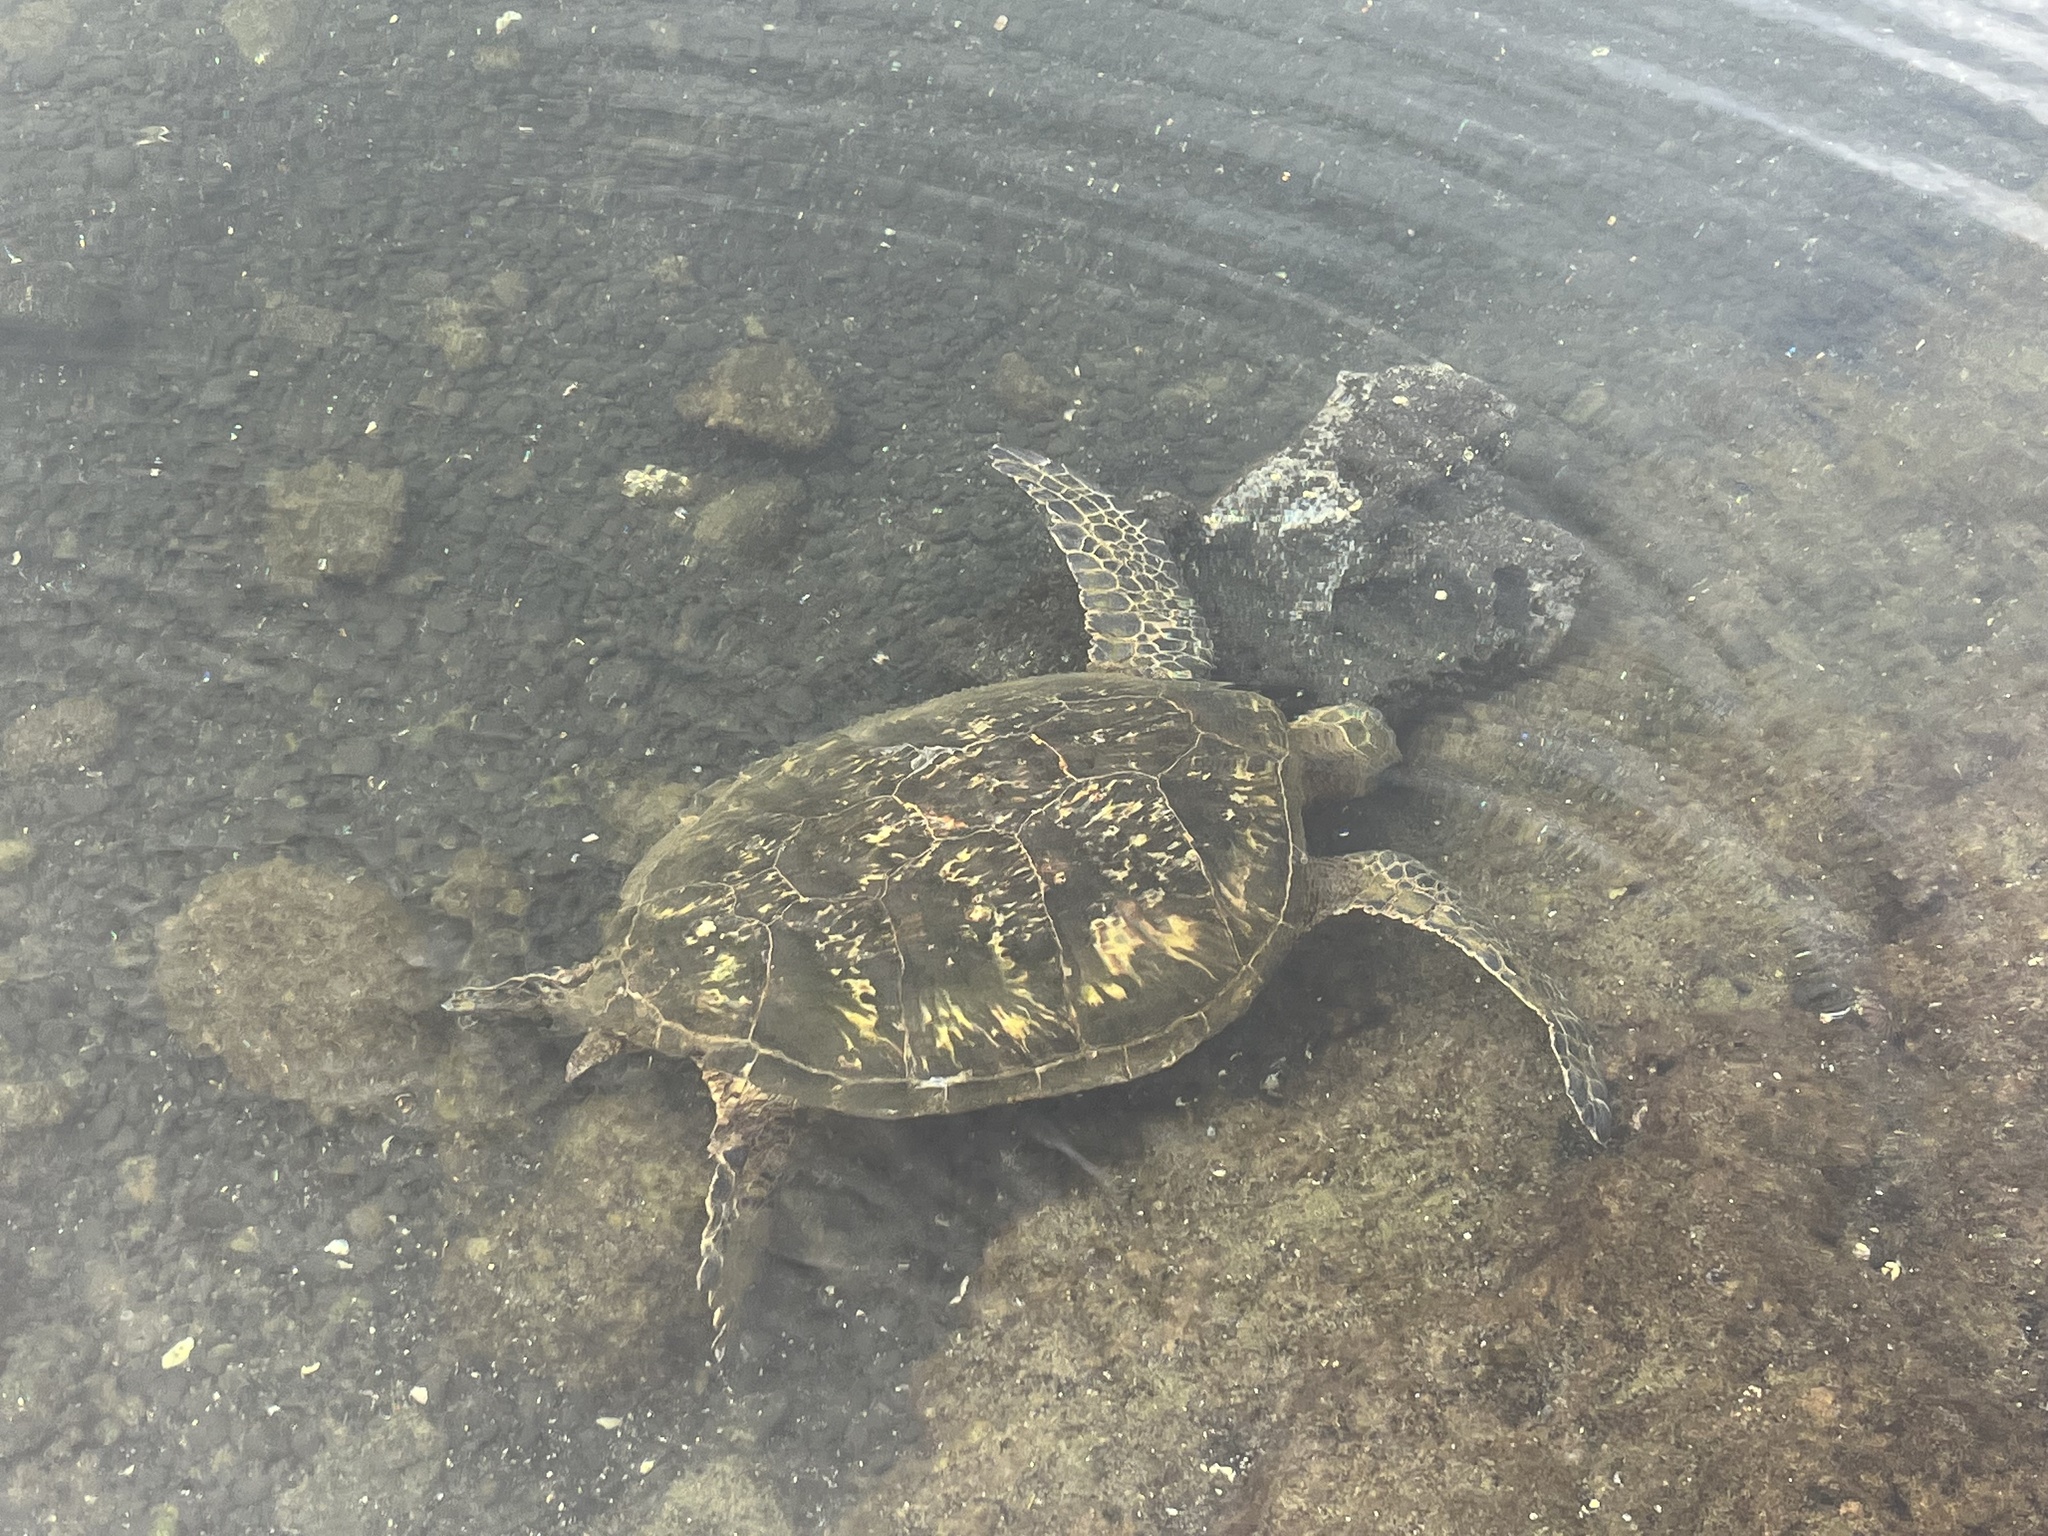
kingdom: Animalia
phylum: Chordata
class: Testudines
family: Cheloniidae
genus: Chelonia
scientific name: Chelonia mydas
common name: Green turtle
